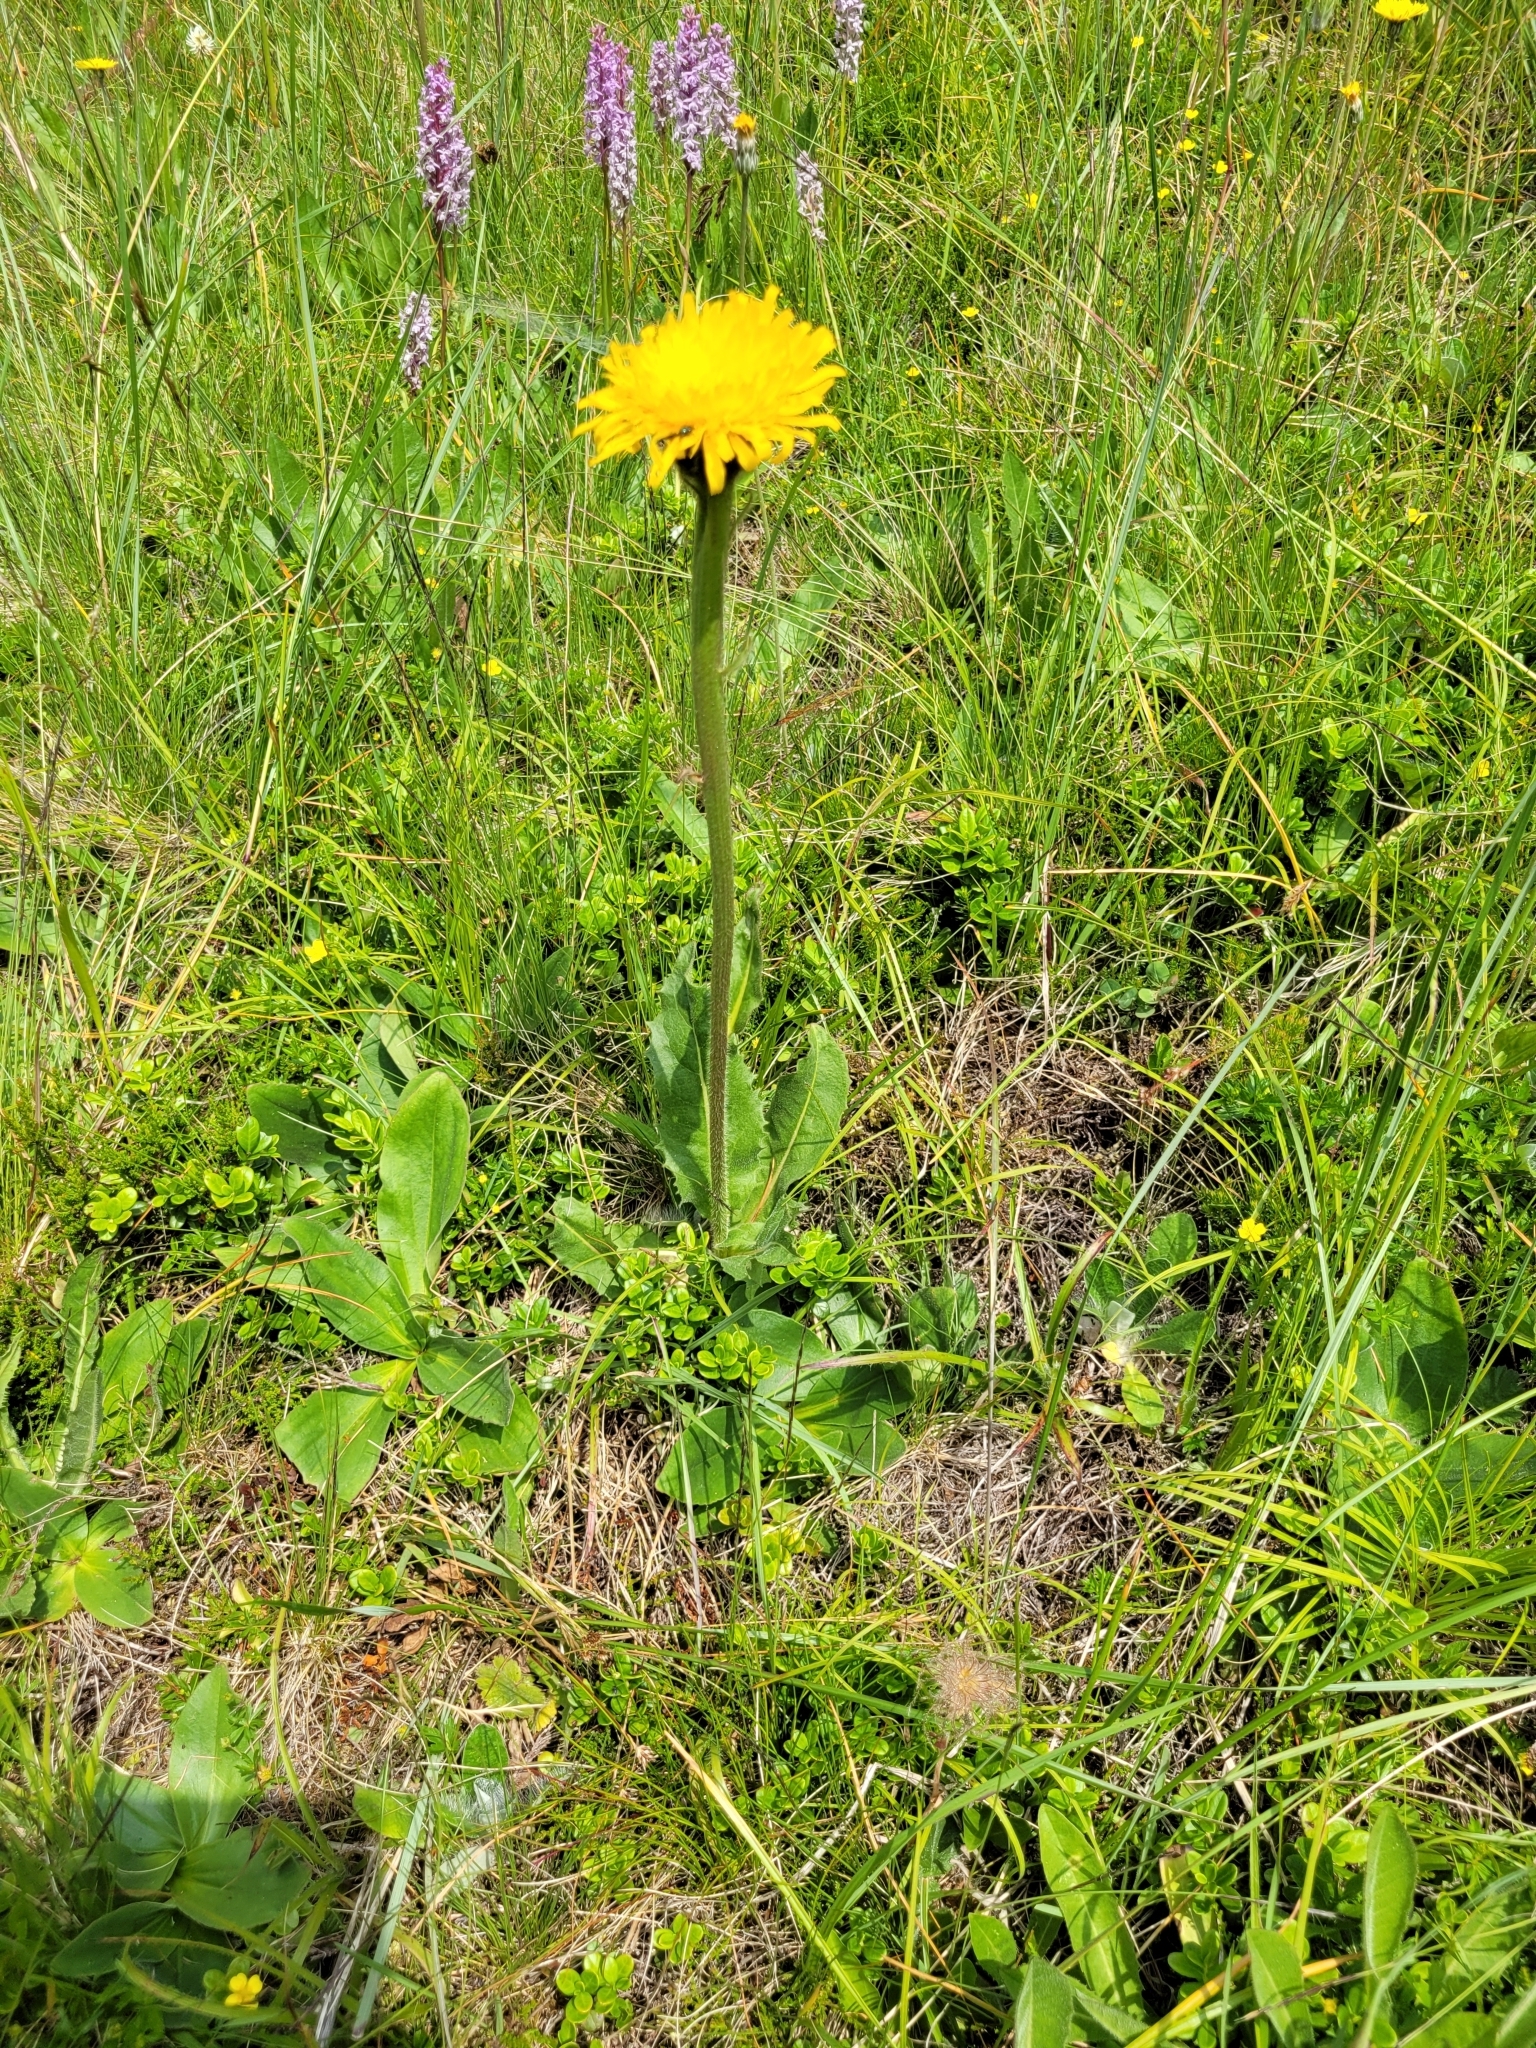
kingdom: Plantae
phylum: Tracheophyta
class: Magnoliopsida
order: Asterales
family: Asteraceae
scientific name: Asteraceae
